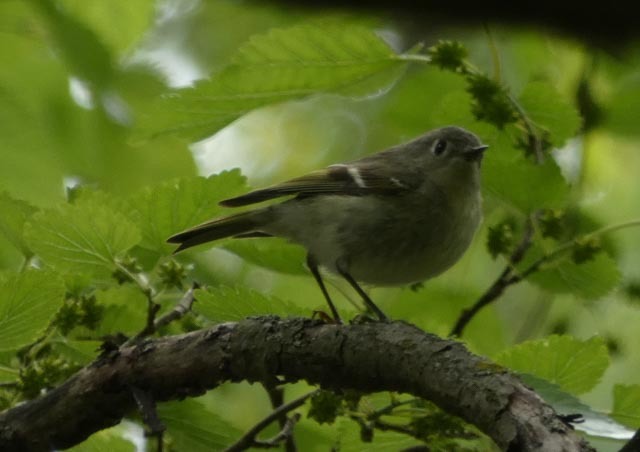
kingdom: Animalia
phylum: Chordata
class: Aves
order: Passeriformes
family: Regulidae
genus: Regulus
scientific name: Regulus calendula
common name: Ruby-crowned kinglet
